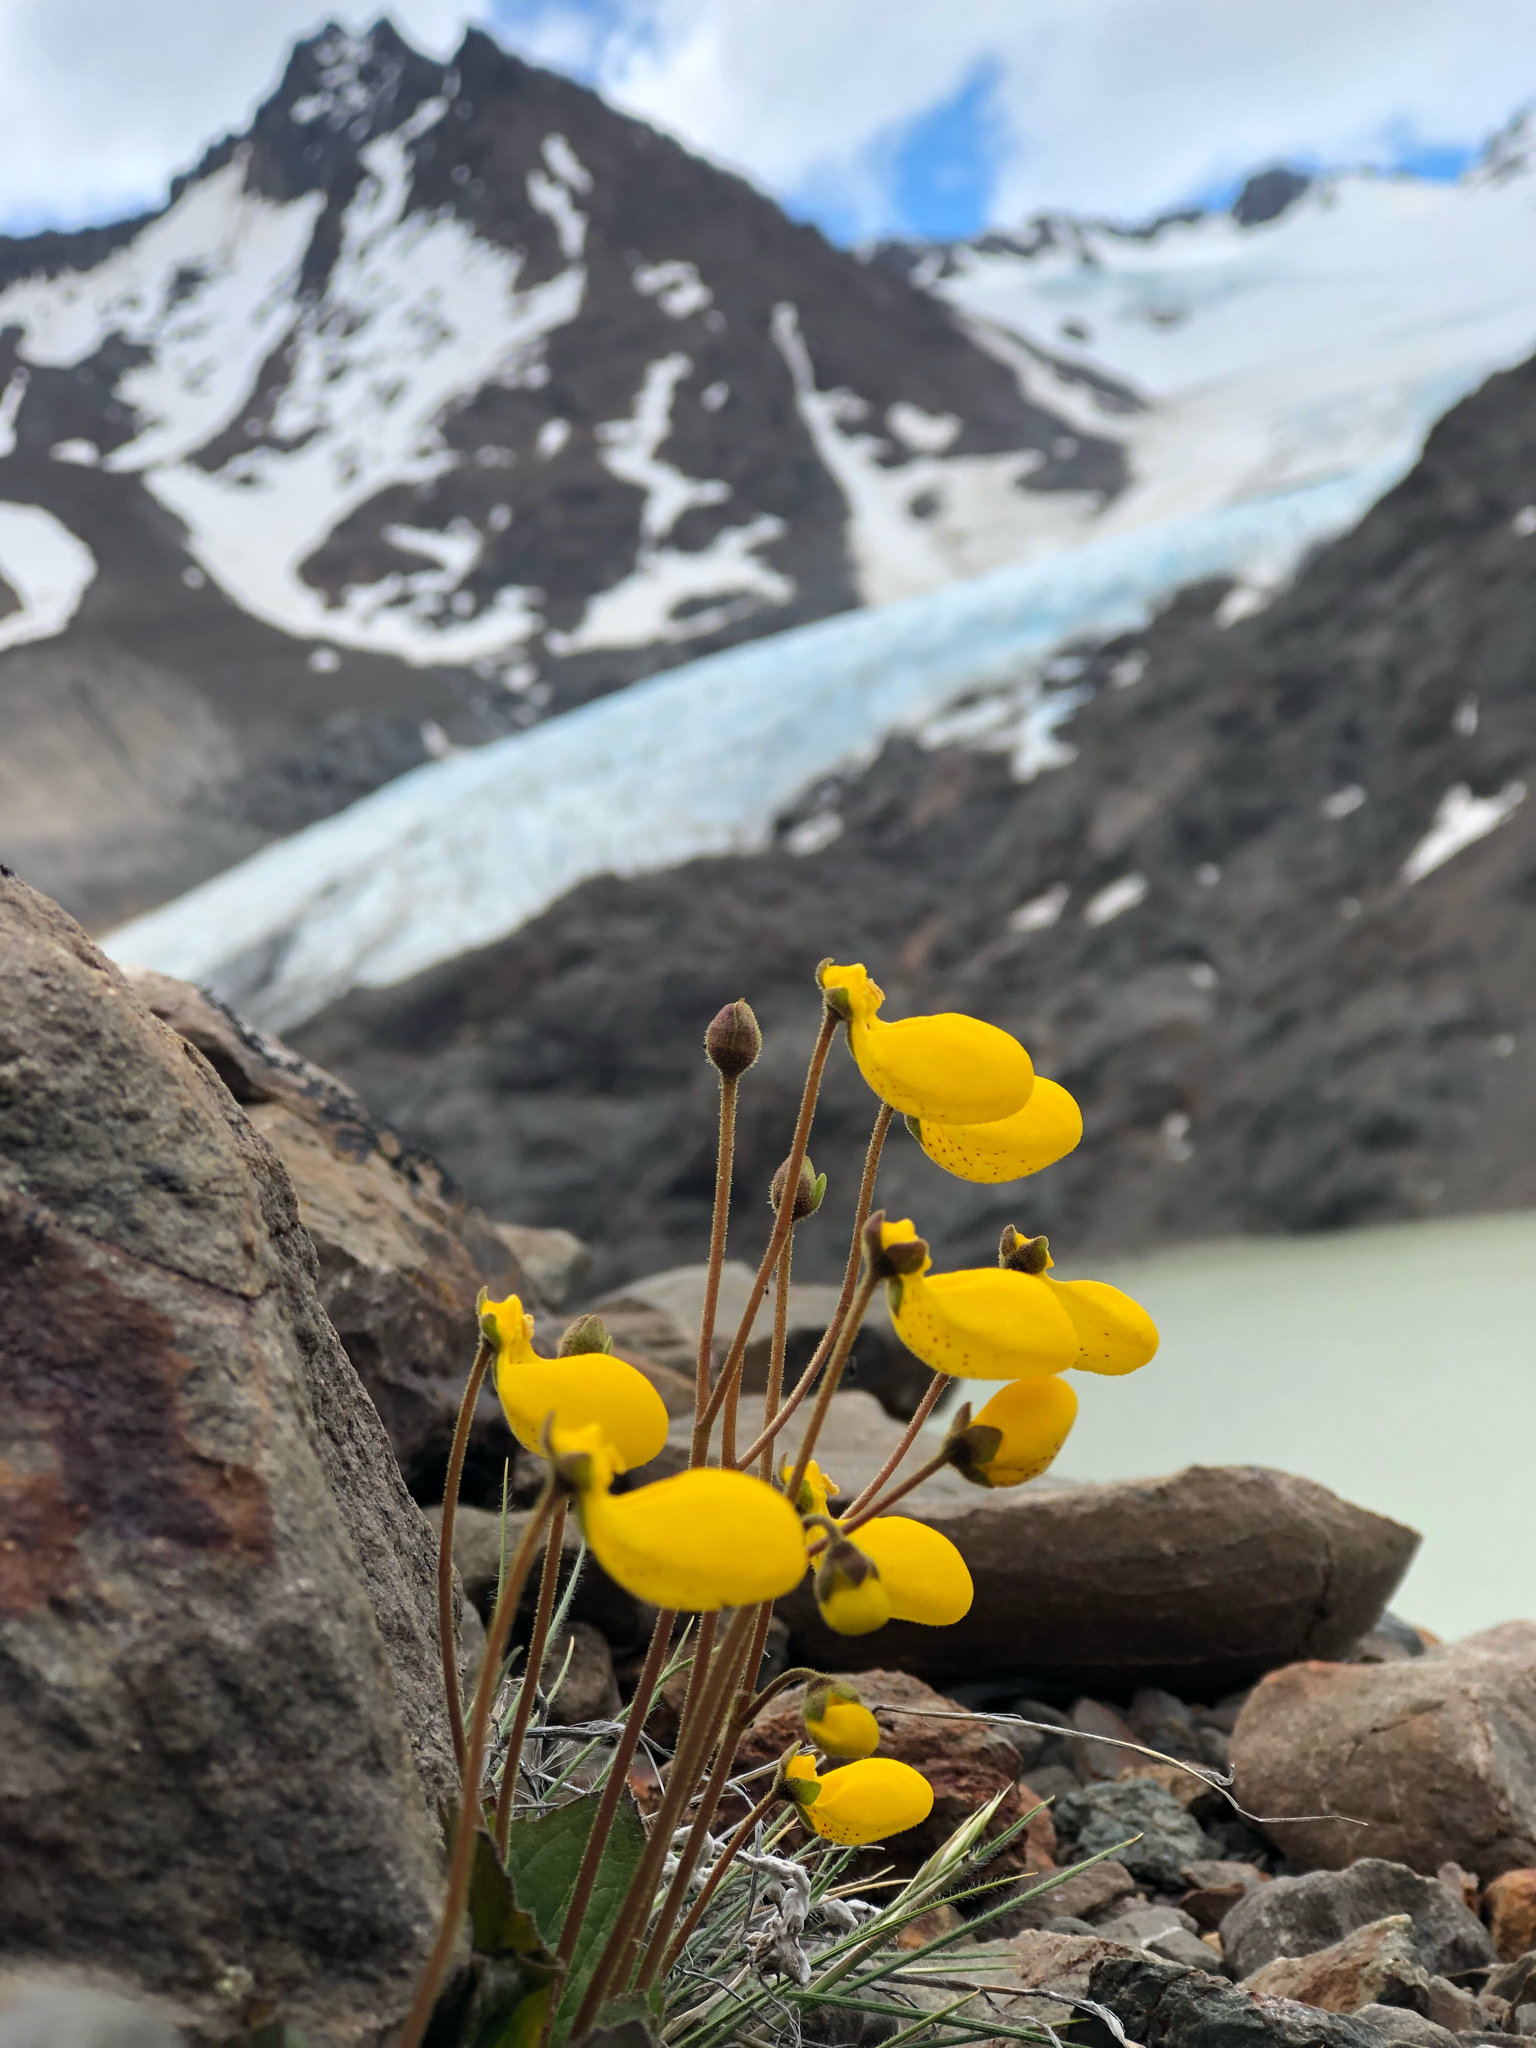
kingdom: Plantae
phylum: Tracheophyta
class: Magnoliopsida
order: Lamiales
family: Calceolariaceae
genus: Calceolaria
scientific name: Calceolaria biflora
